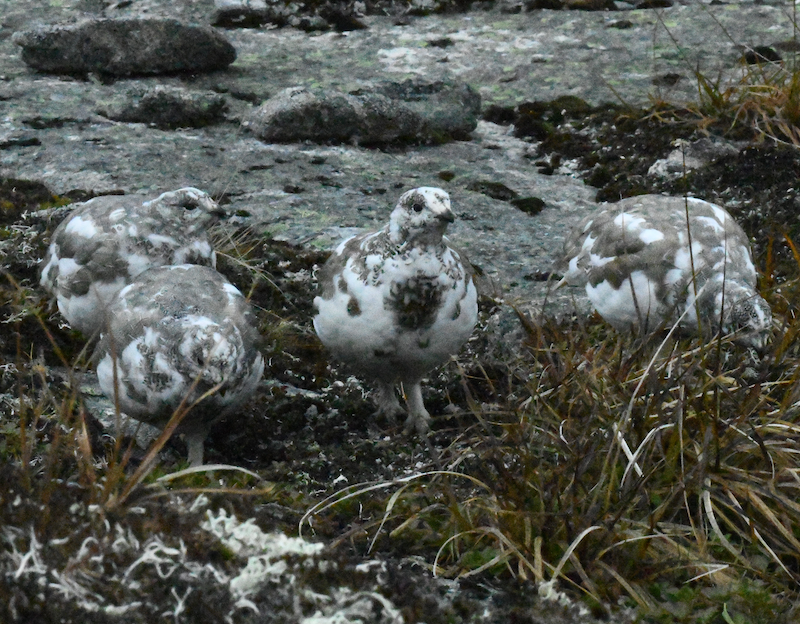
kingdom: Animalia
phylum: Chordata
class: Aves
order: Galliformes
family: Phasianidae
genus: Lagopus
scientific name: Lagopus leucura
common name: White-tailed ptarmigan
